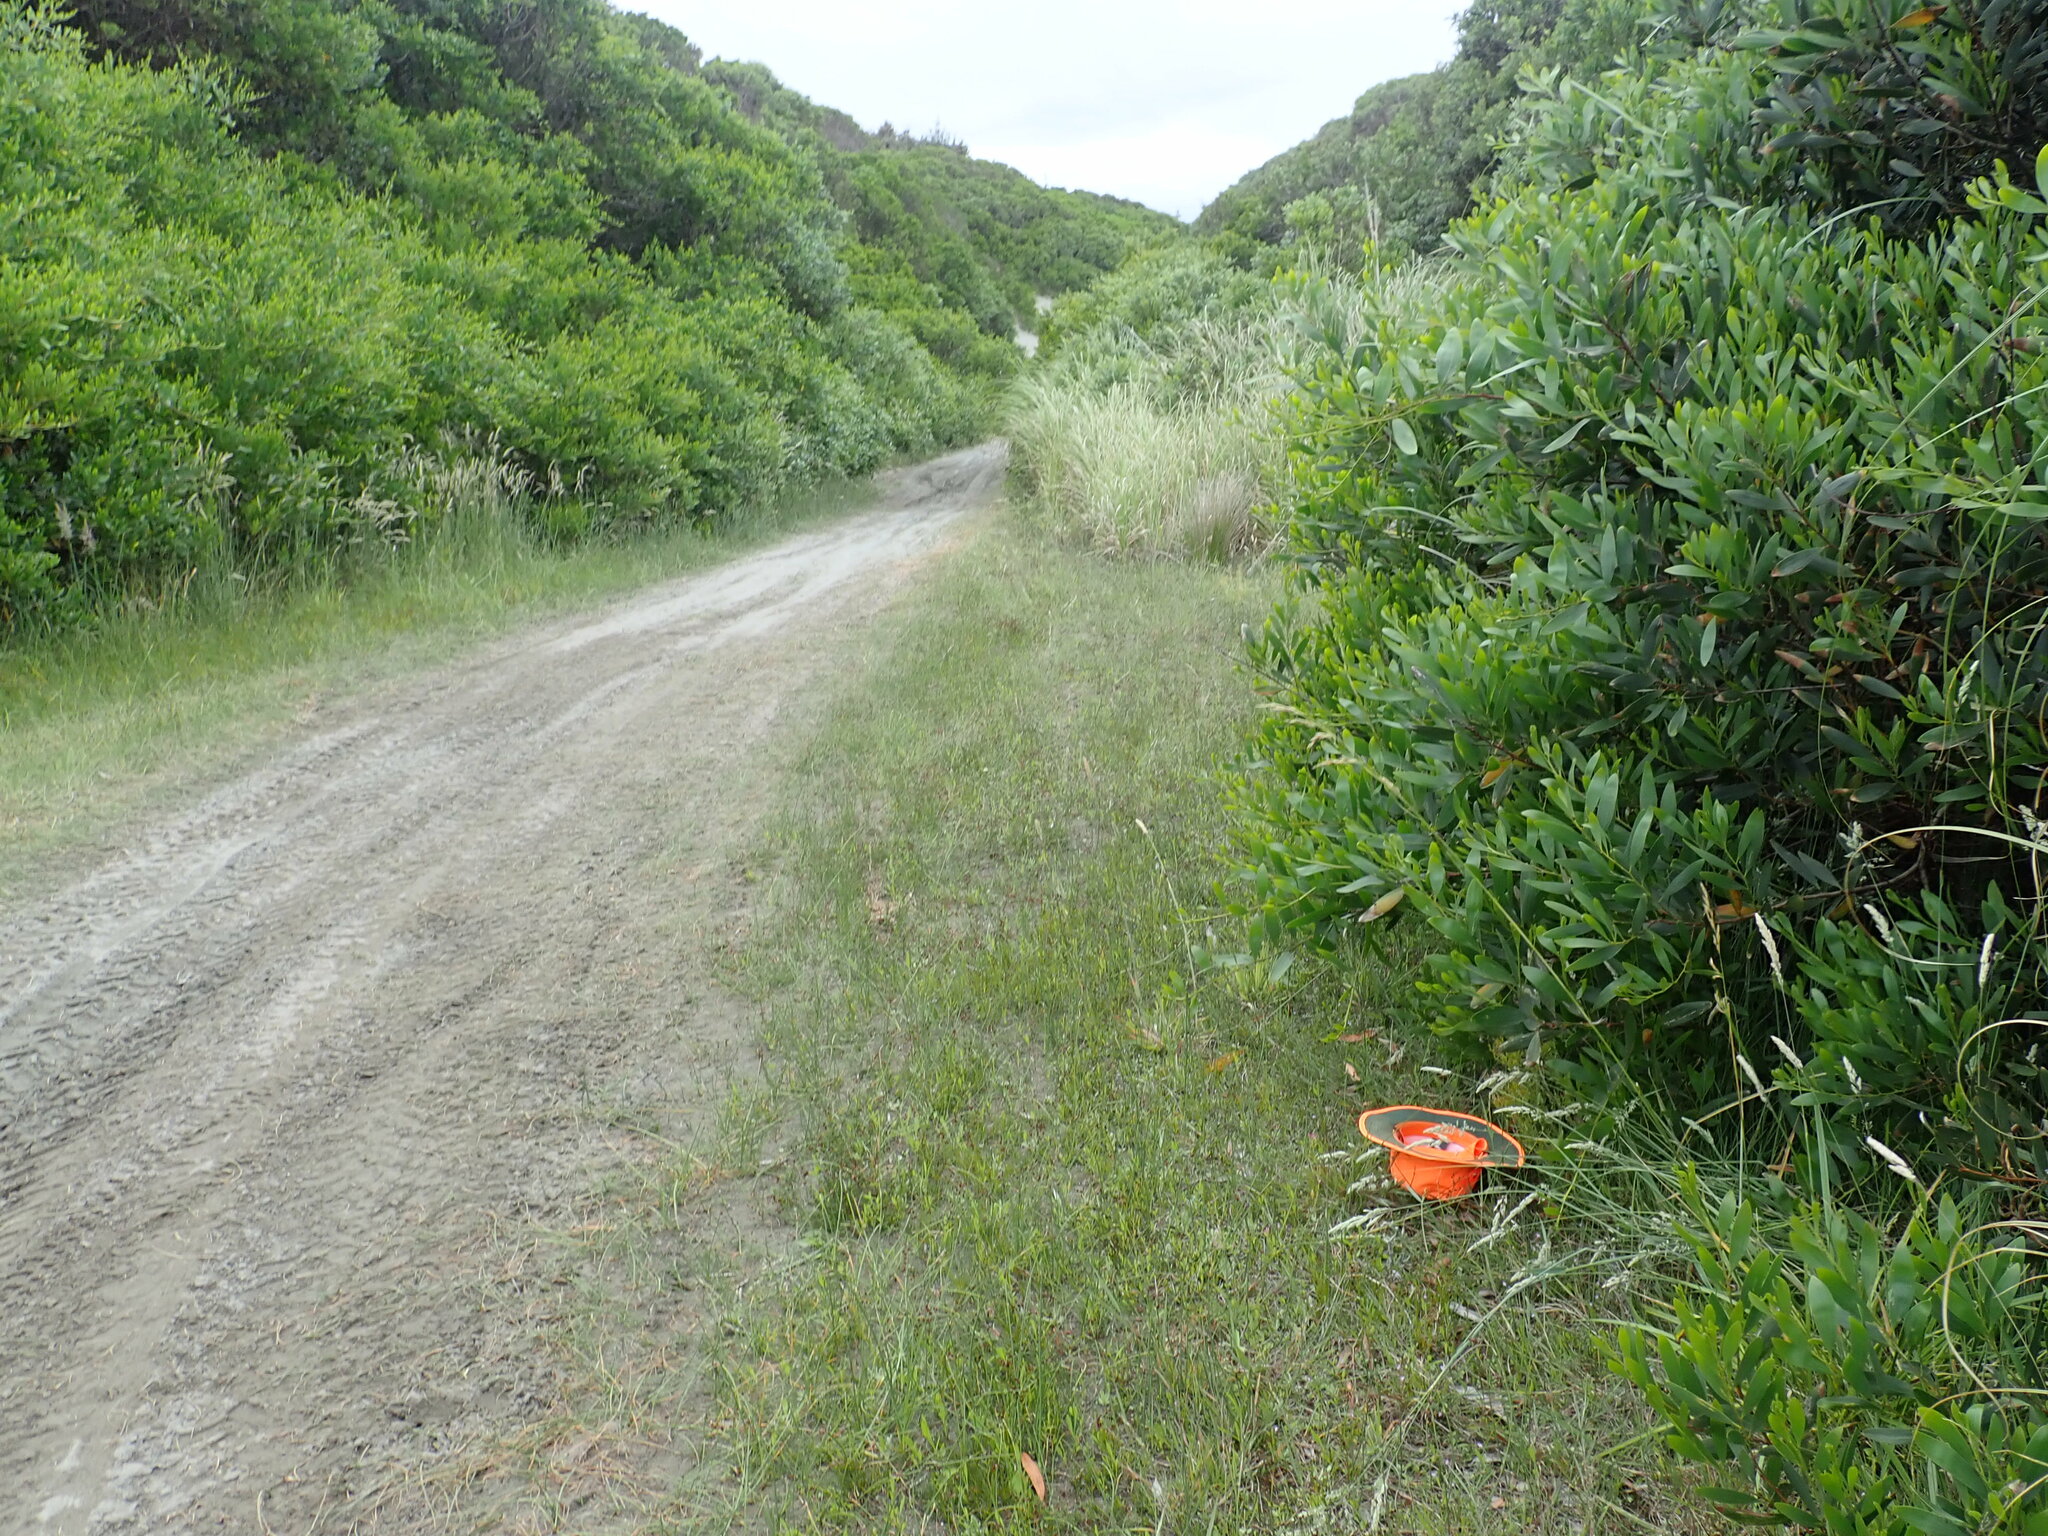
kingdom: Plantae
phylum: Tracheophyta
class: Magnoliopsida
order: Gentianales
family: Gentianaceae
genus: Centaurium
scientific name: Centaurium erythraea
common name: Common centaury
